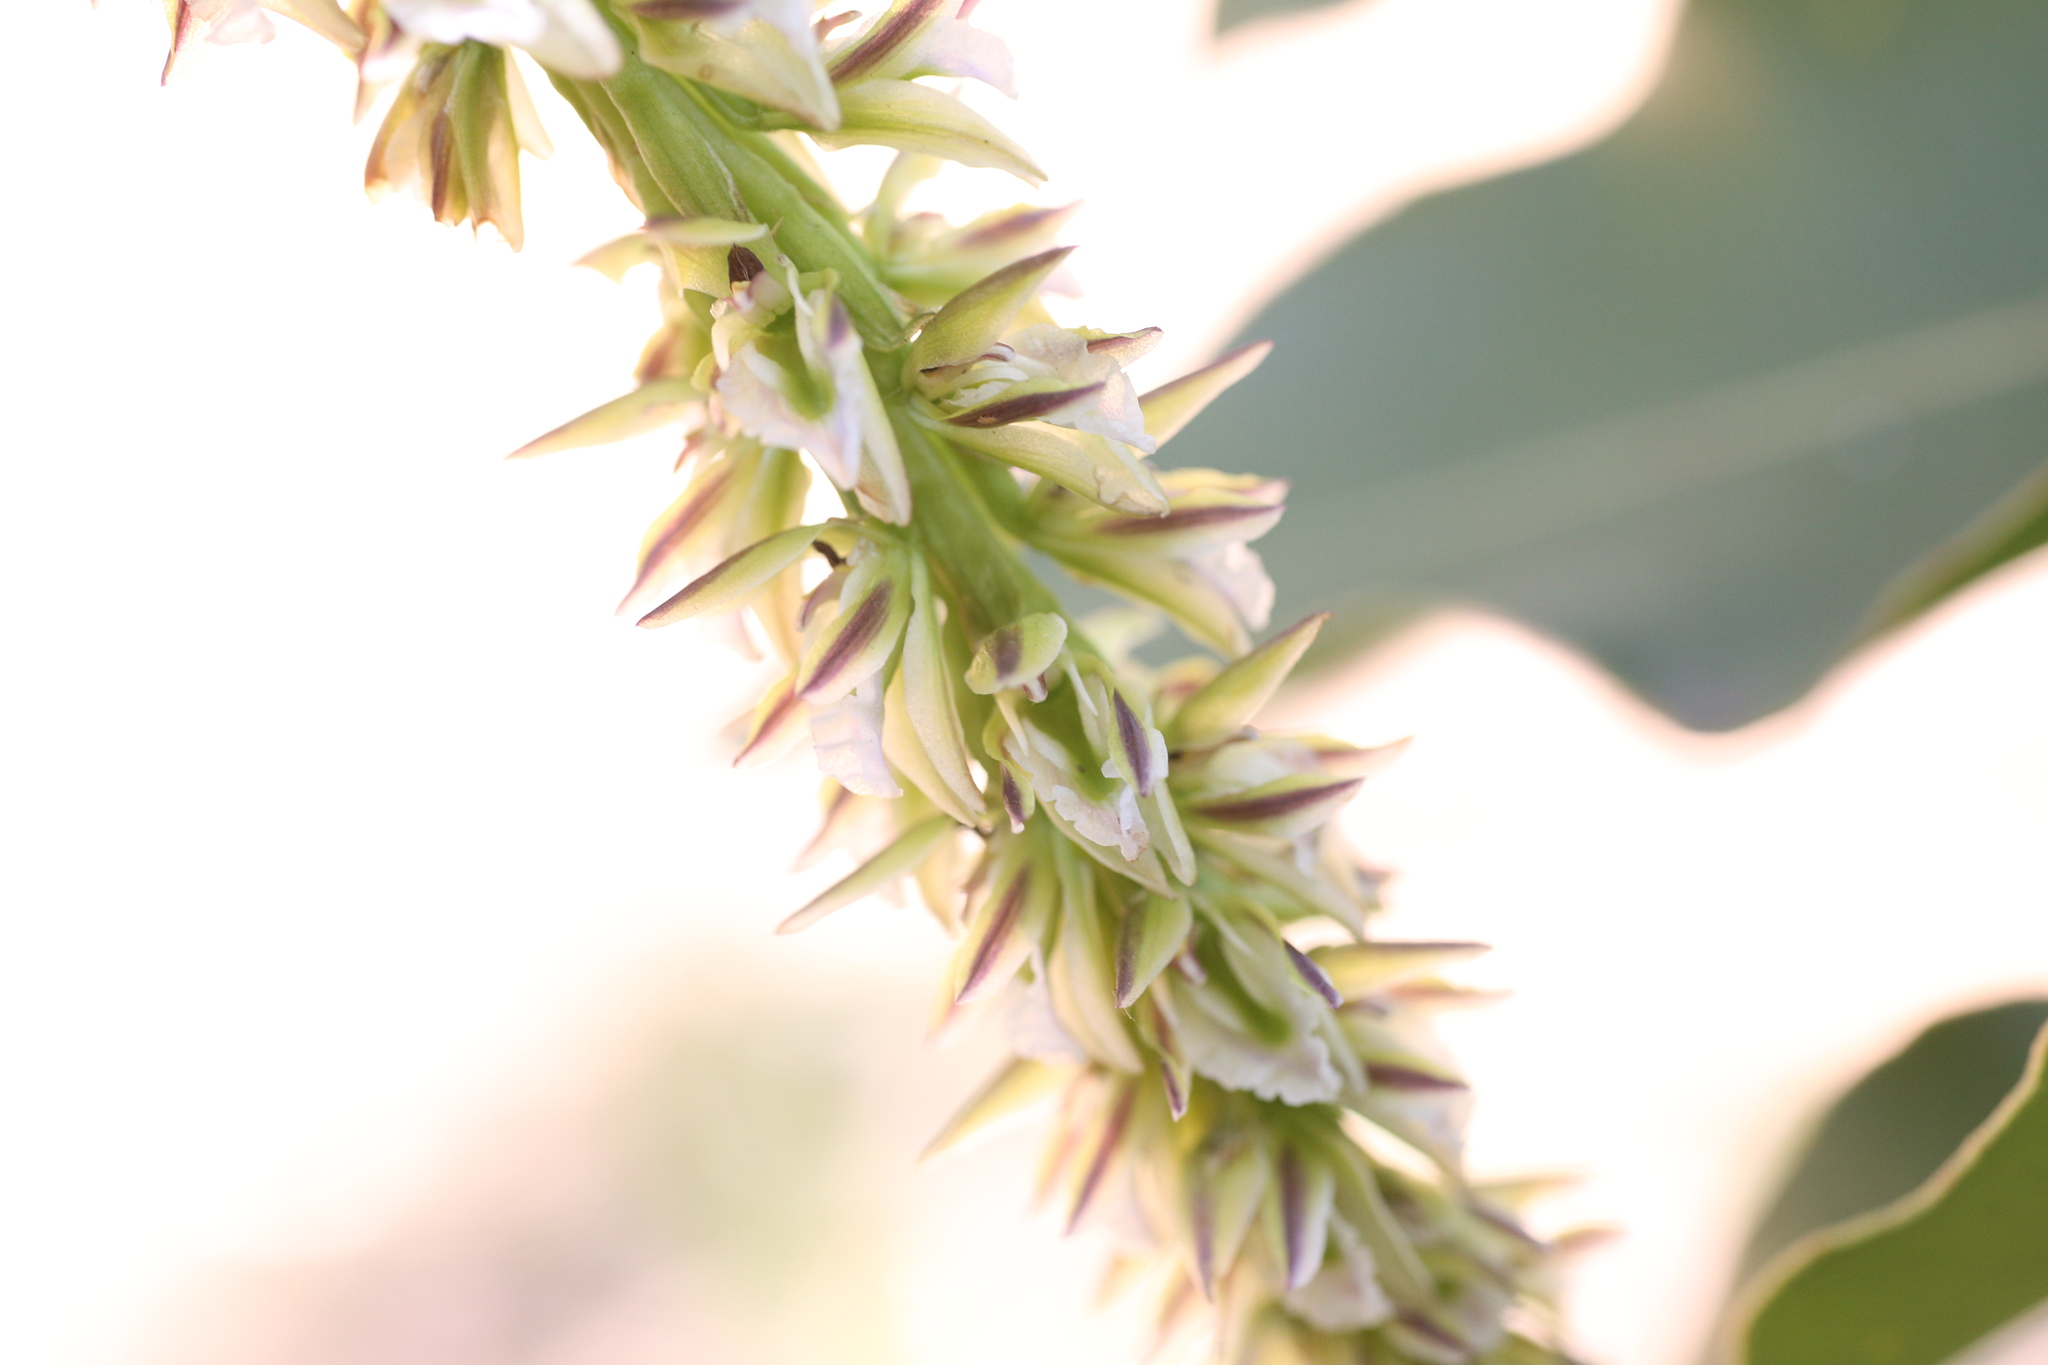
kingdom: Plantae
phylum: Tracheophyta
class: Liliopsida
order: Asparagales
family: Orchidaceae
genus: Prasophyllum
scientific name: Prasophyllum brownii
